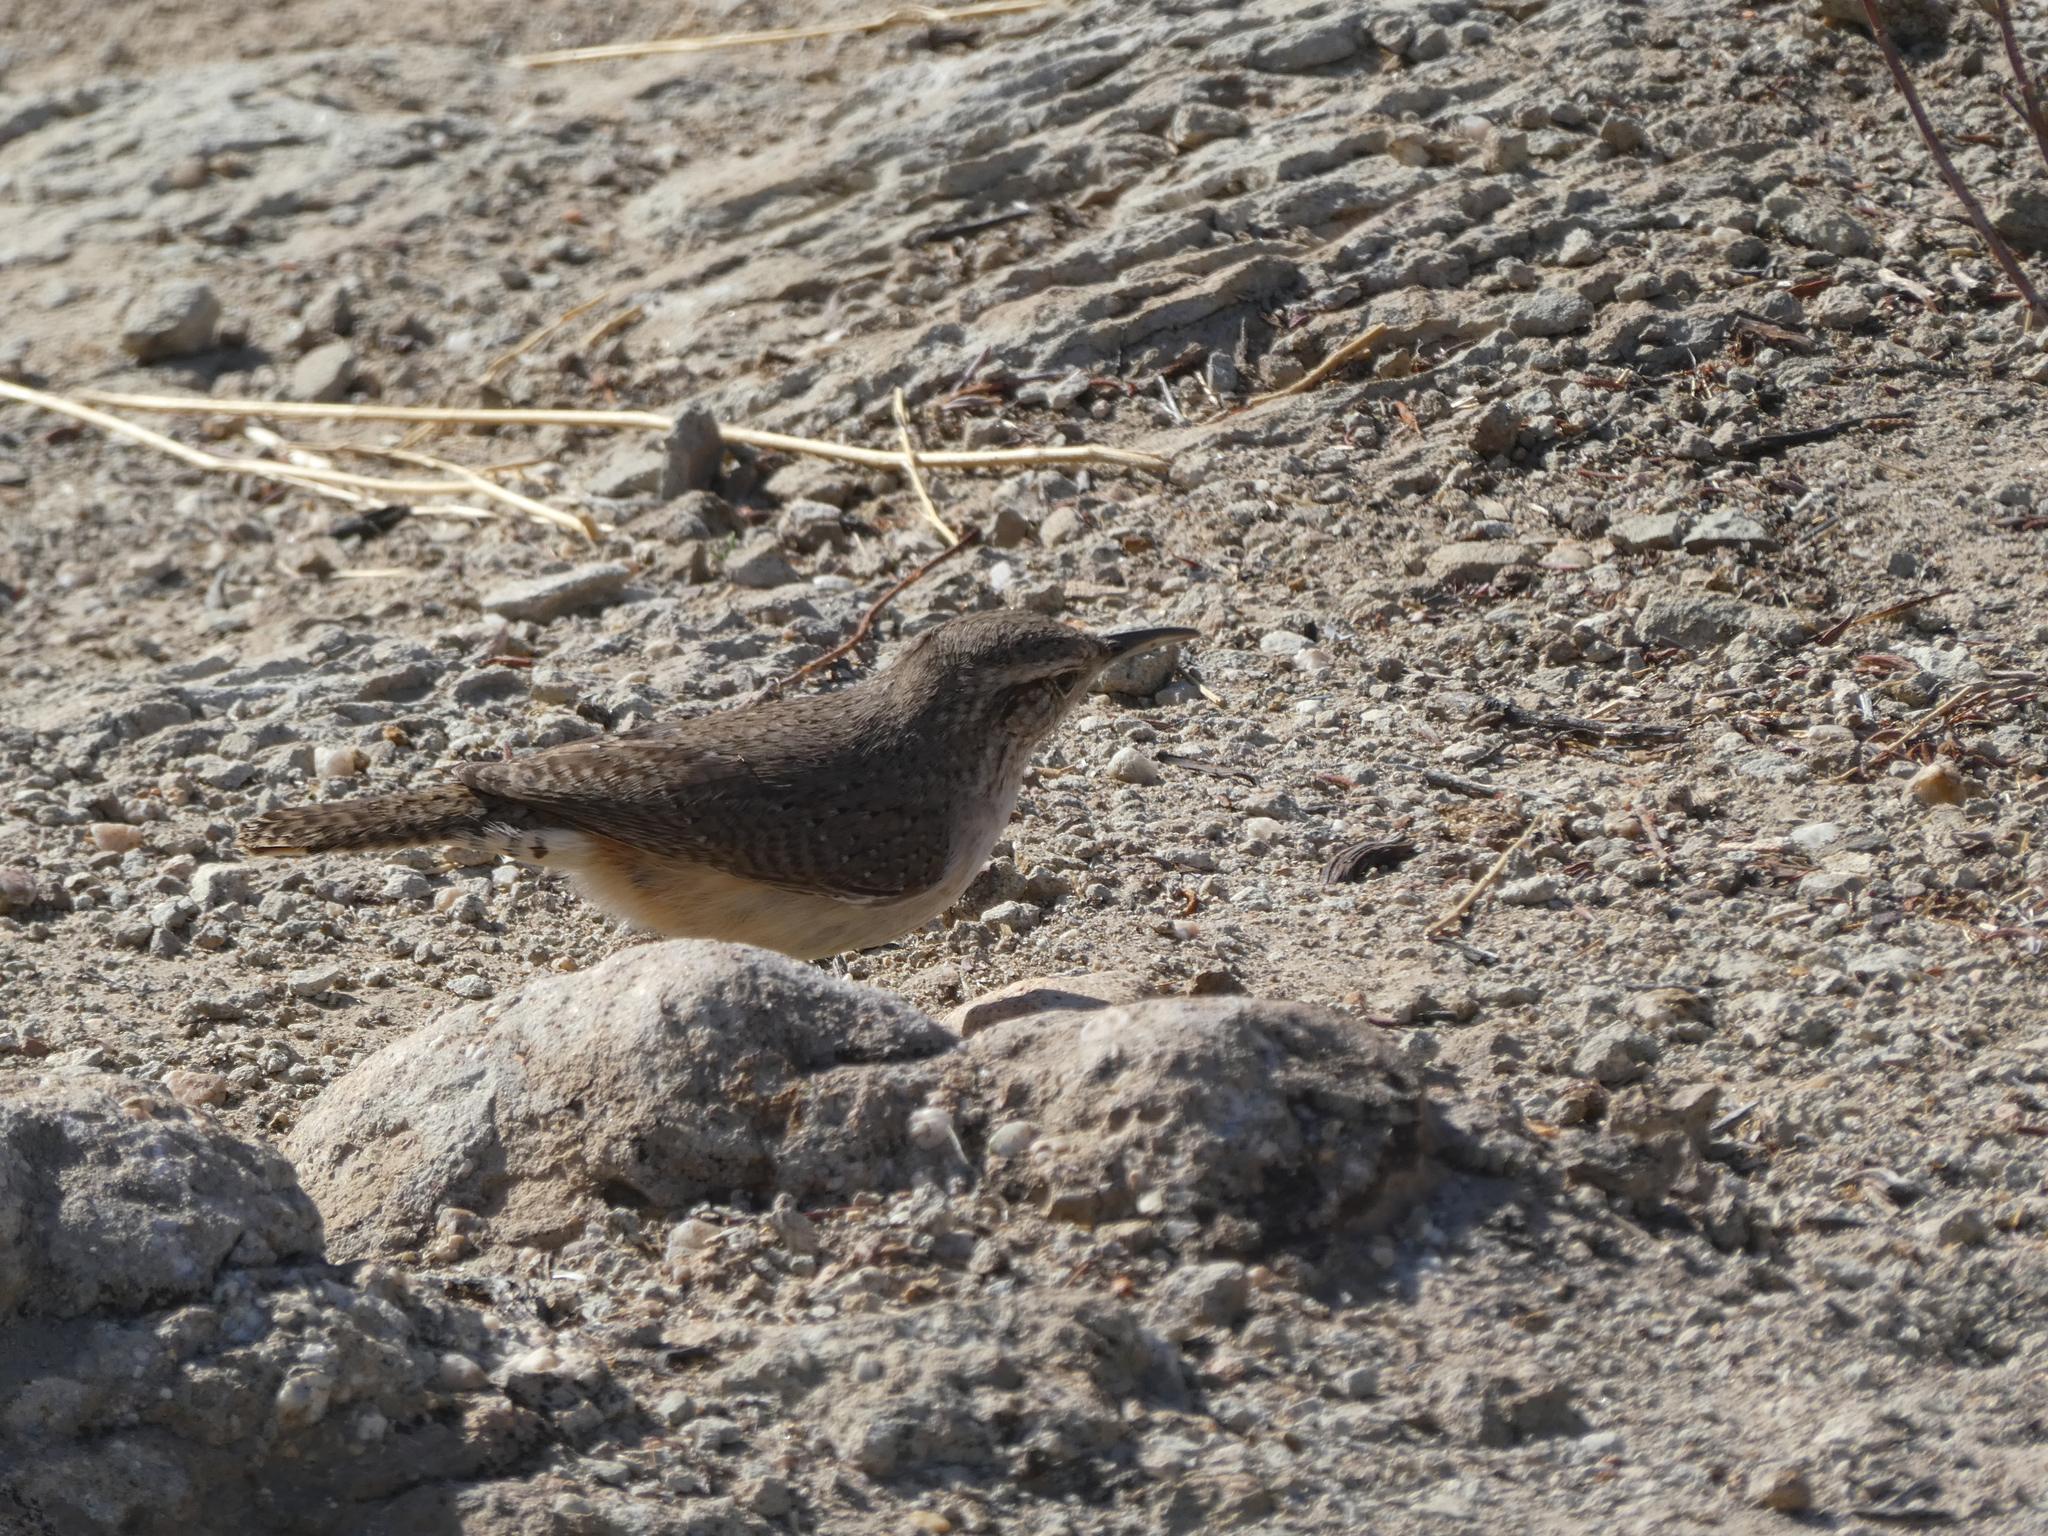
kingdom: Animalia
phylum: Chordata
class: Aves
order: Passeriformes
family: Troglodytidae
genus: Salpinctes
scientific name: Salpinctes obsoletus
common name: Rock wren
